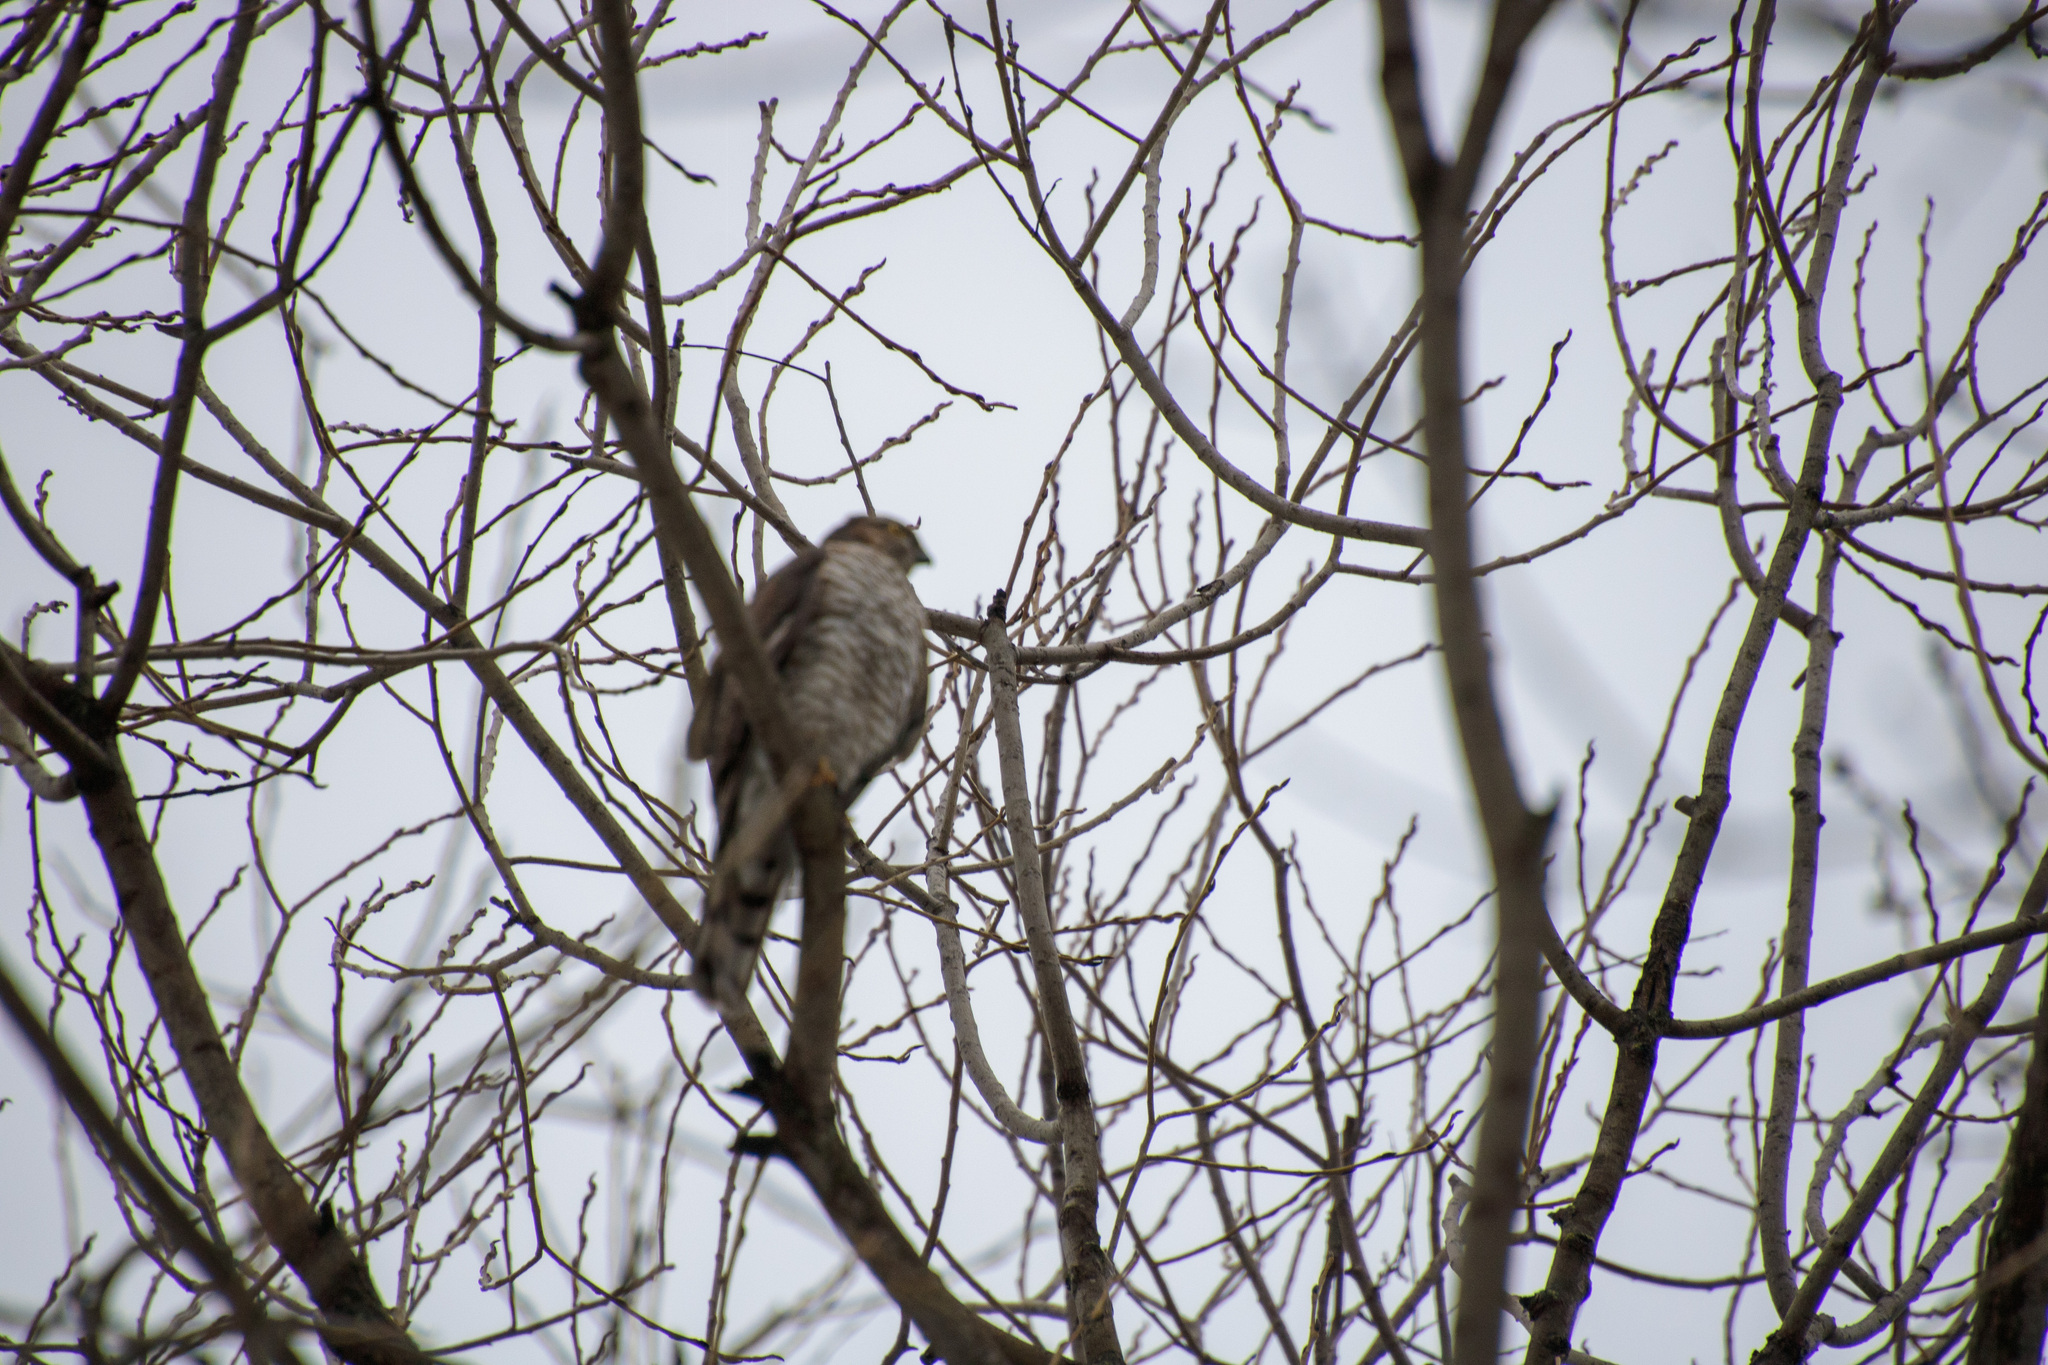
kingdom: Animalia
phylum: Chordata
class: Aves
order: Accipitriformes
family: Accipitridae
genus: Accipiter
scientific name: Accipiter nisus
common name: Eurasian sparrowhawk
